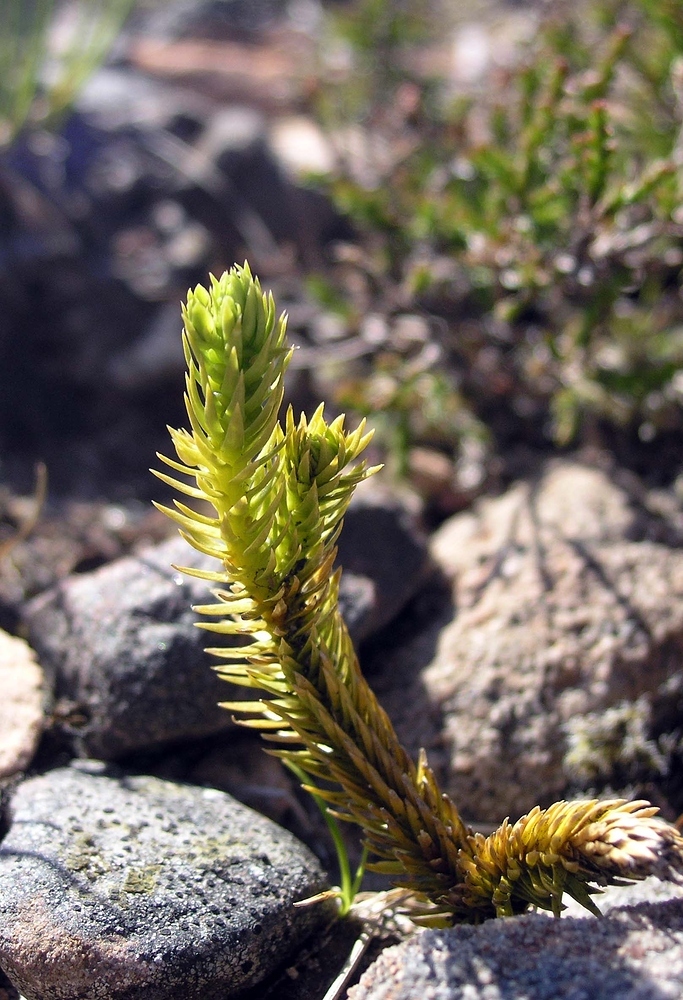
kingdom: Plantae
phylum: Tracheophyta
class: Lycopodiopsida
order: Lycopodiales
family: Lycopodiaceae
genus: Huperzia
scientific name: Huperzia selago
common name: Northern firmoss
